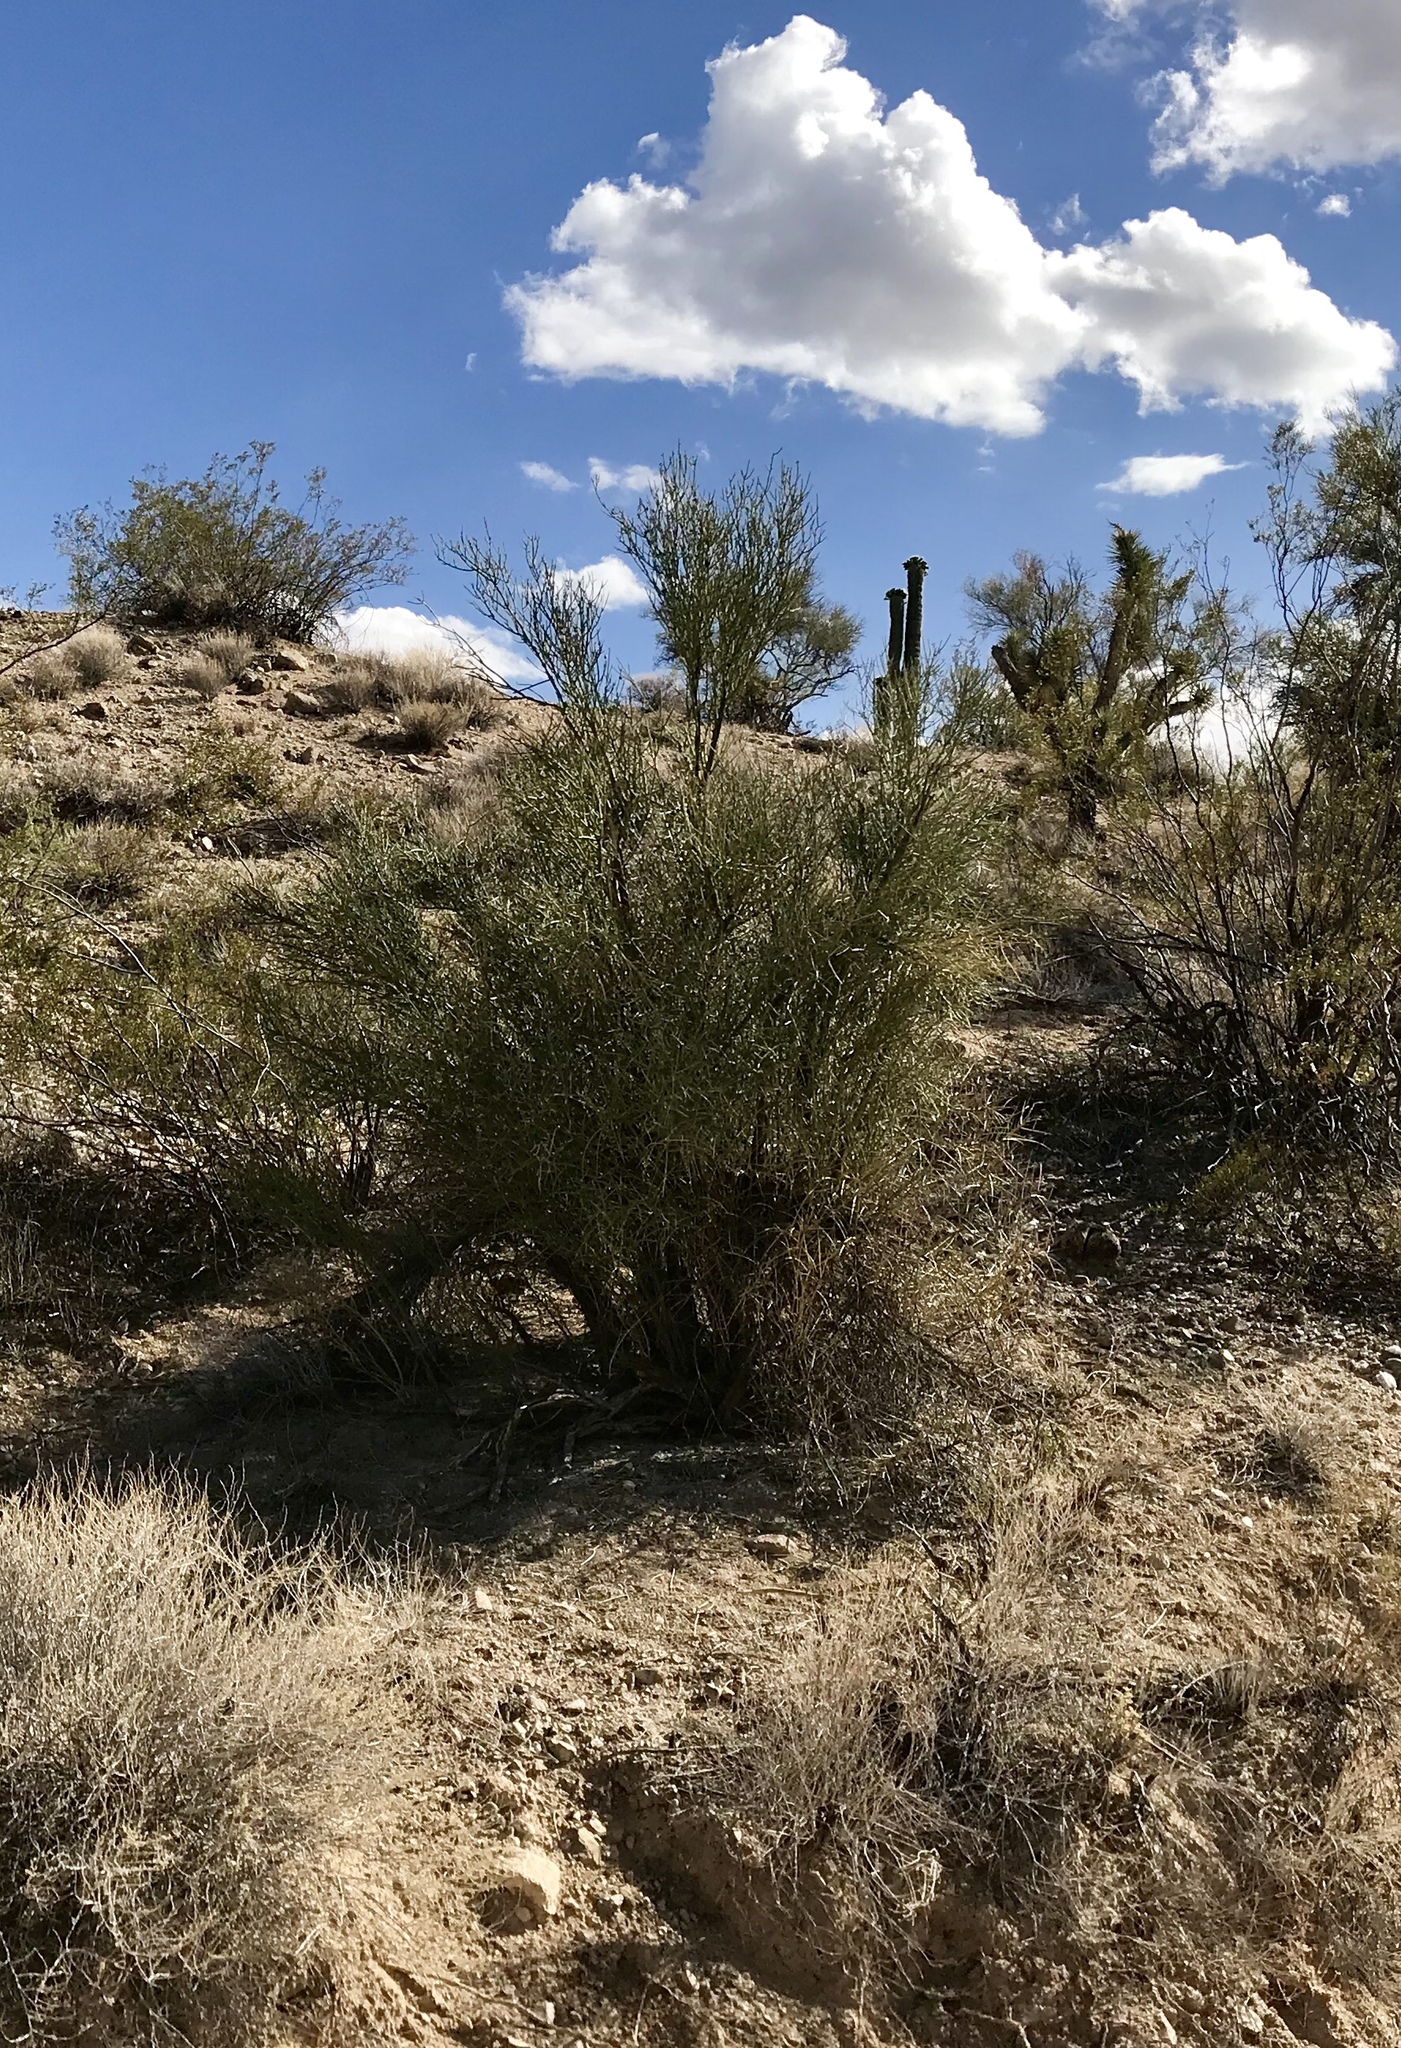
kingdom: Plantae
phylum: Tracheophyta
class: Magnoliopsida
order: Celastrales
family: Celastraceae
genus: Canotia
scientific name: Canotia holacantha
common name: Crucifixion thorns
